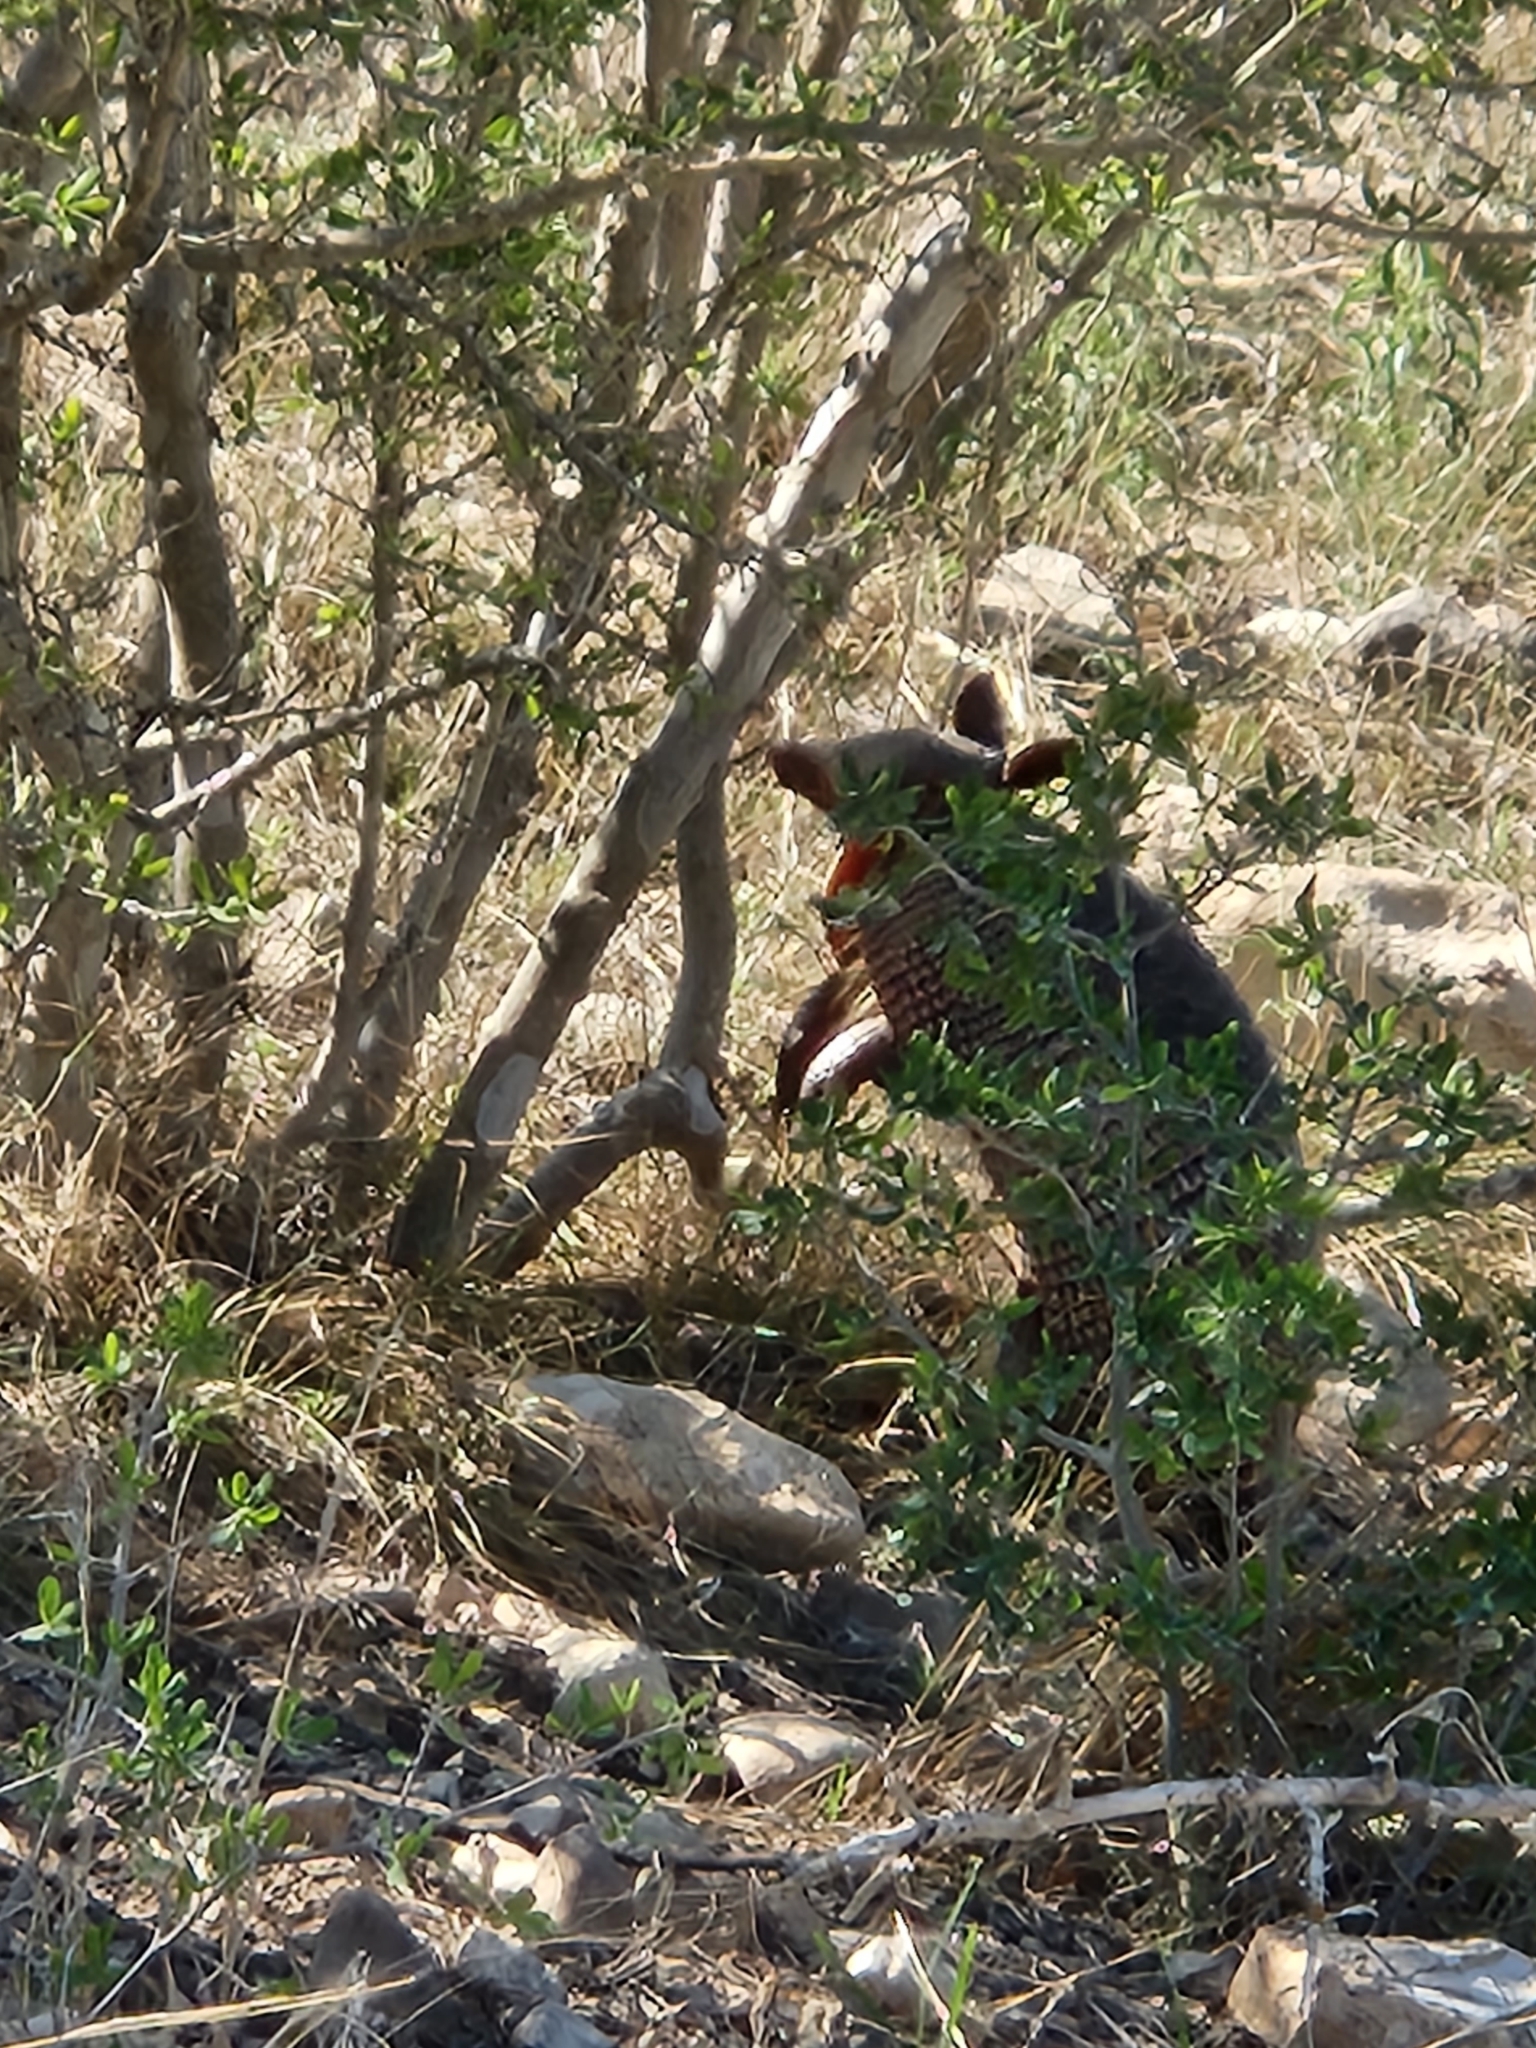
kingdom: Animalia
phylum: Chordata
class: Mammalia
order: Cingulata
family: Dasypodidae
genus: Dasypus
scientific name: Dasypus novemcinctus
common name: Nine-banded armadillo
